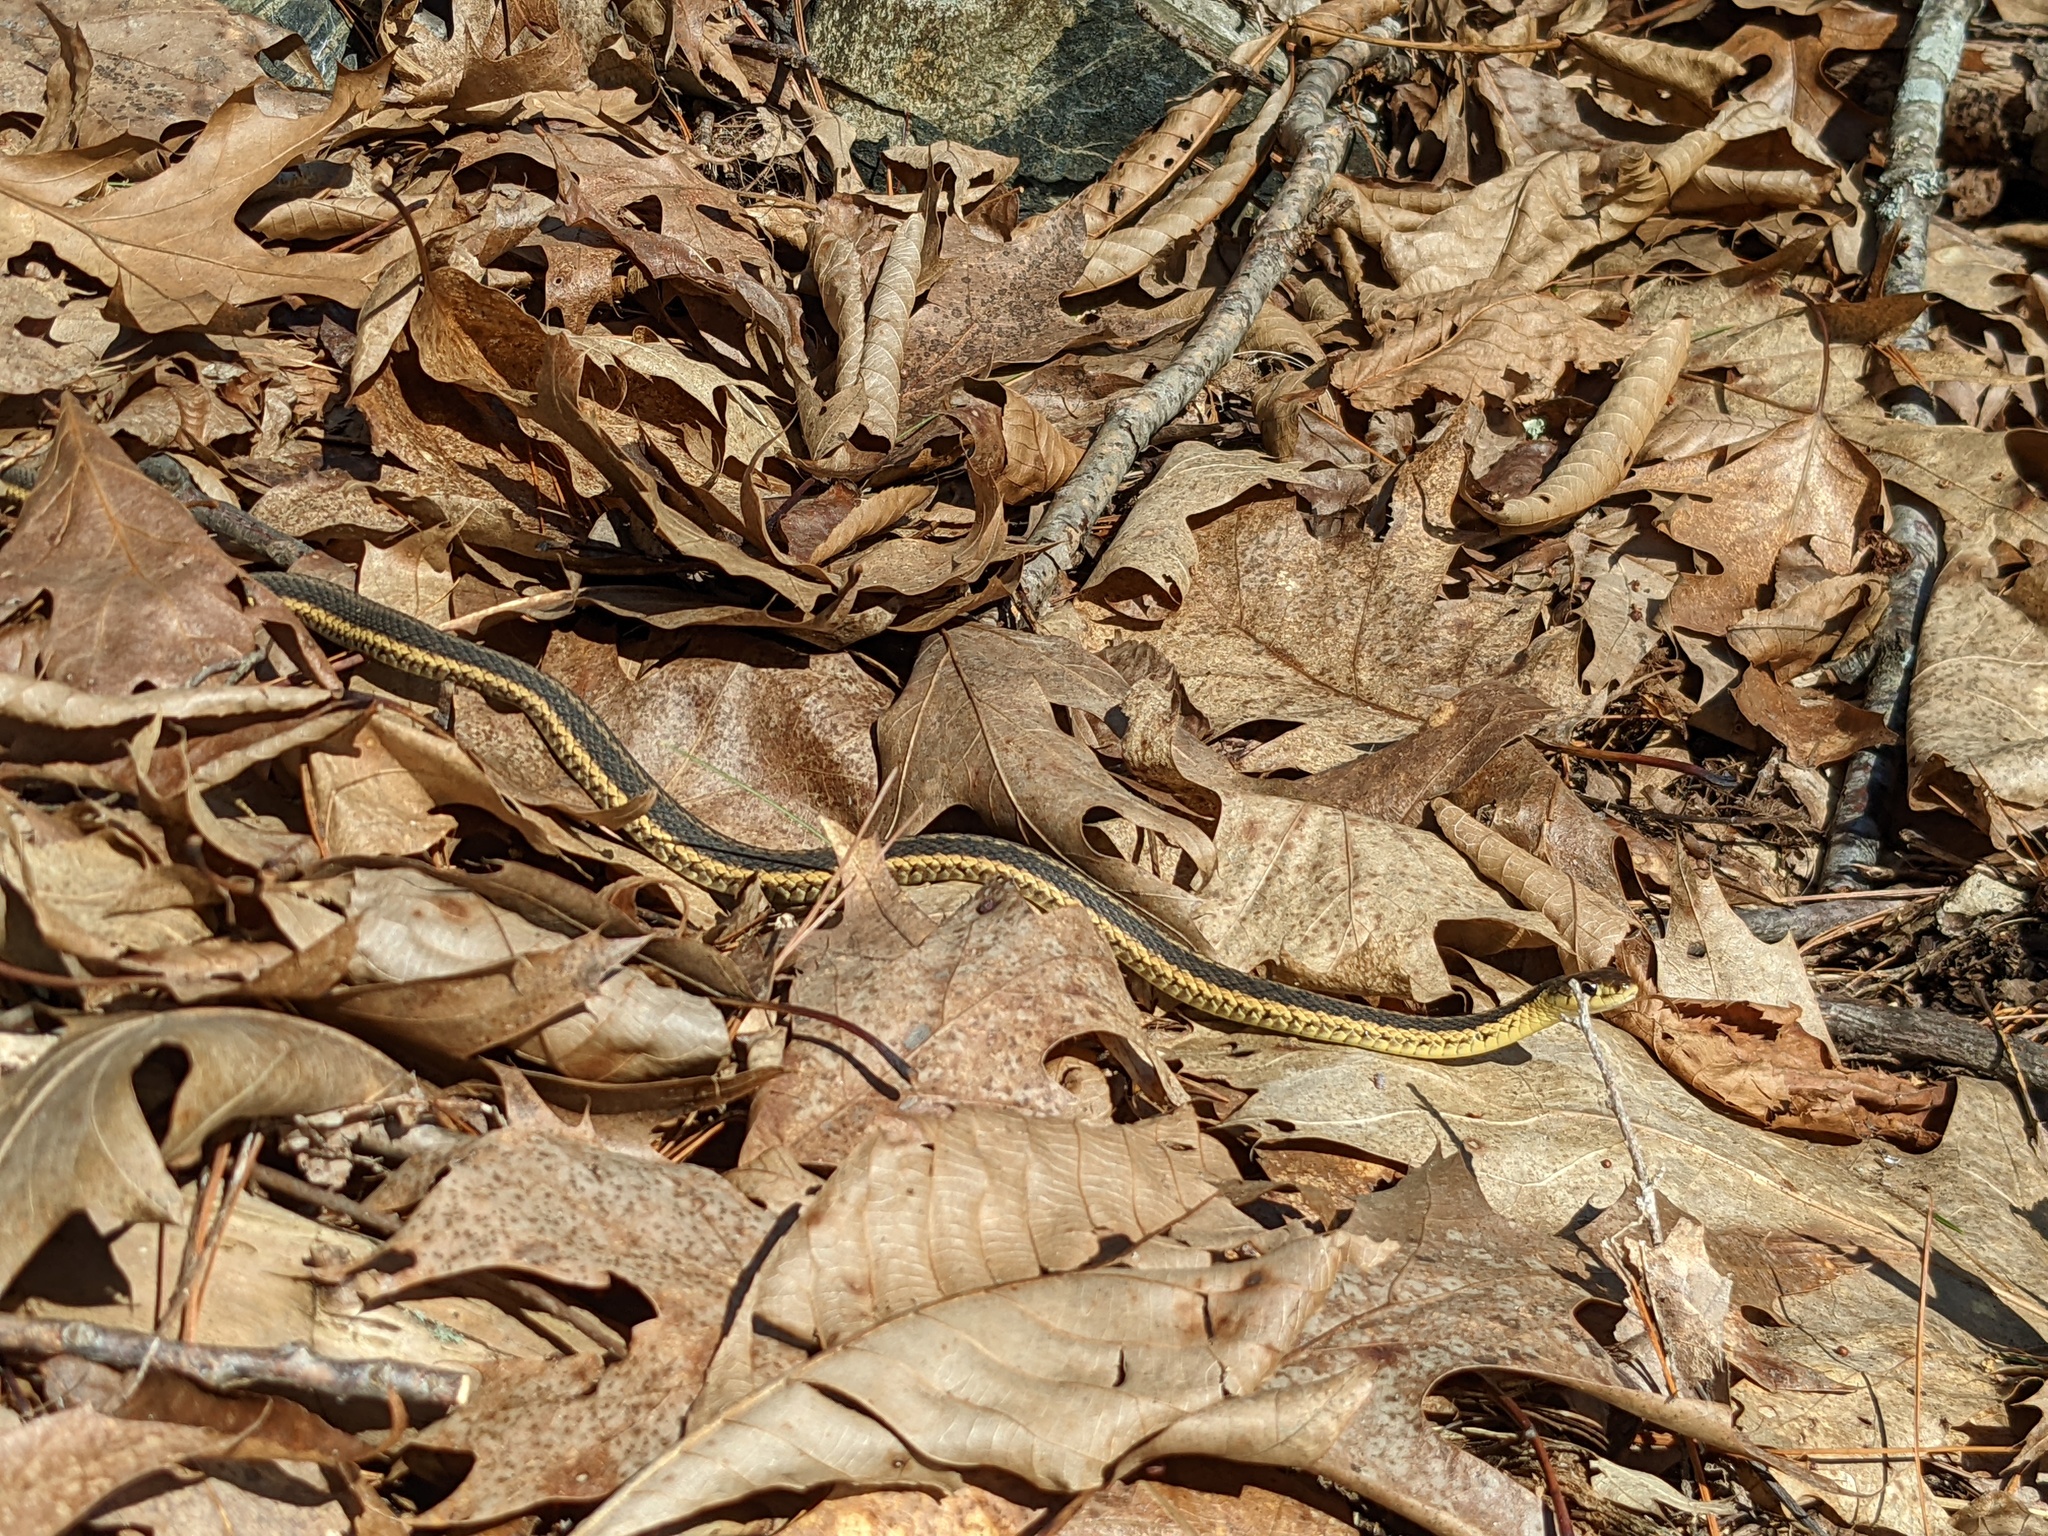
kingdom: Animalia
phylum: Chordata
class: Squamata
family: Colubridae
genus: Thamnophis
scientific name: Thamnophis sirtalis
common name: Common garter snake
